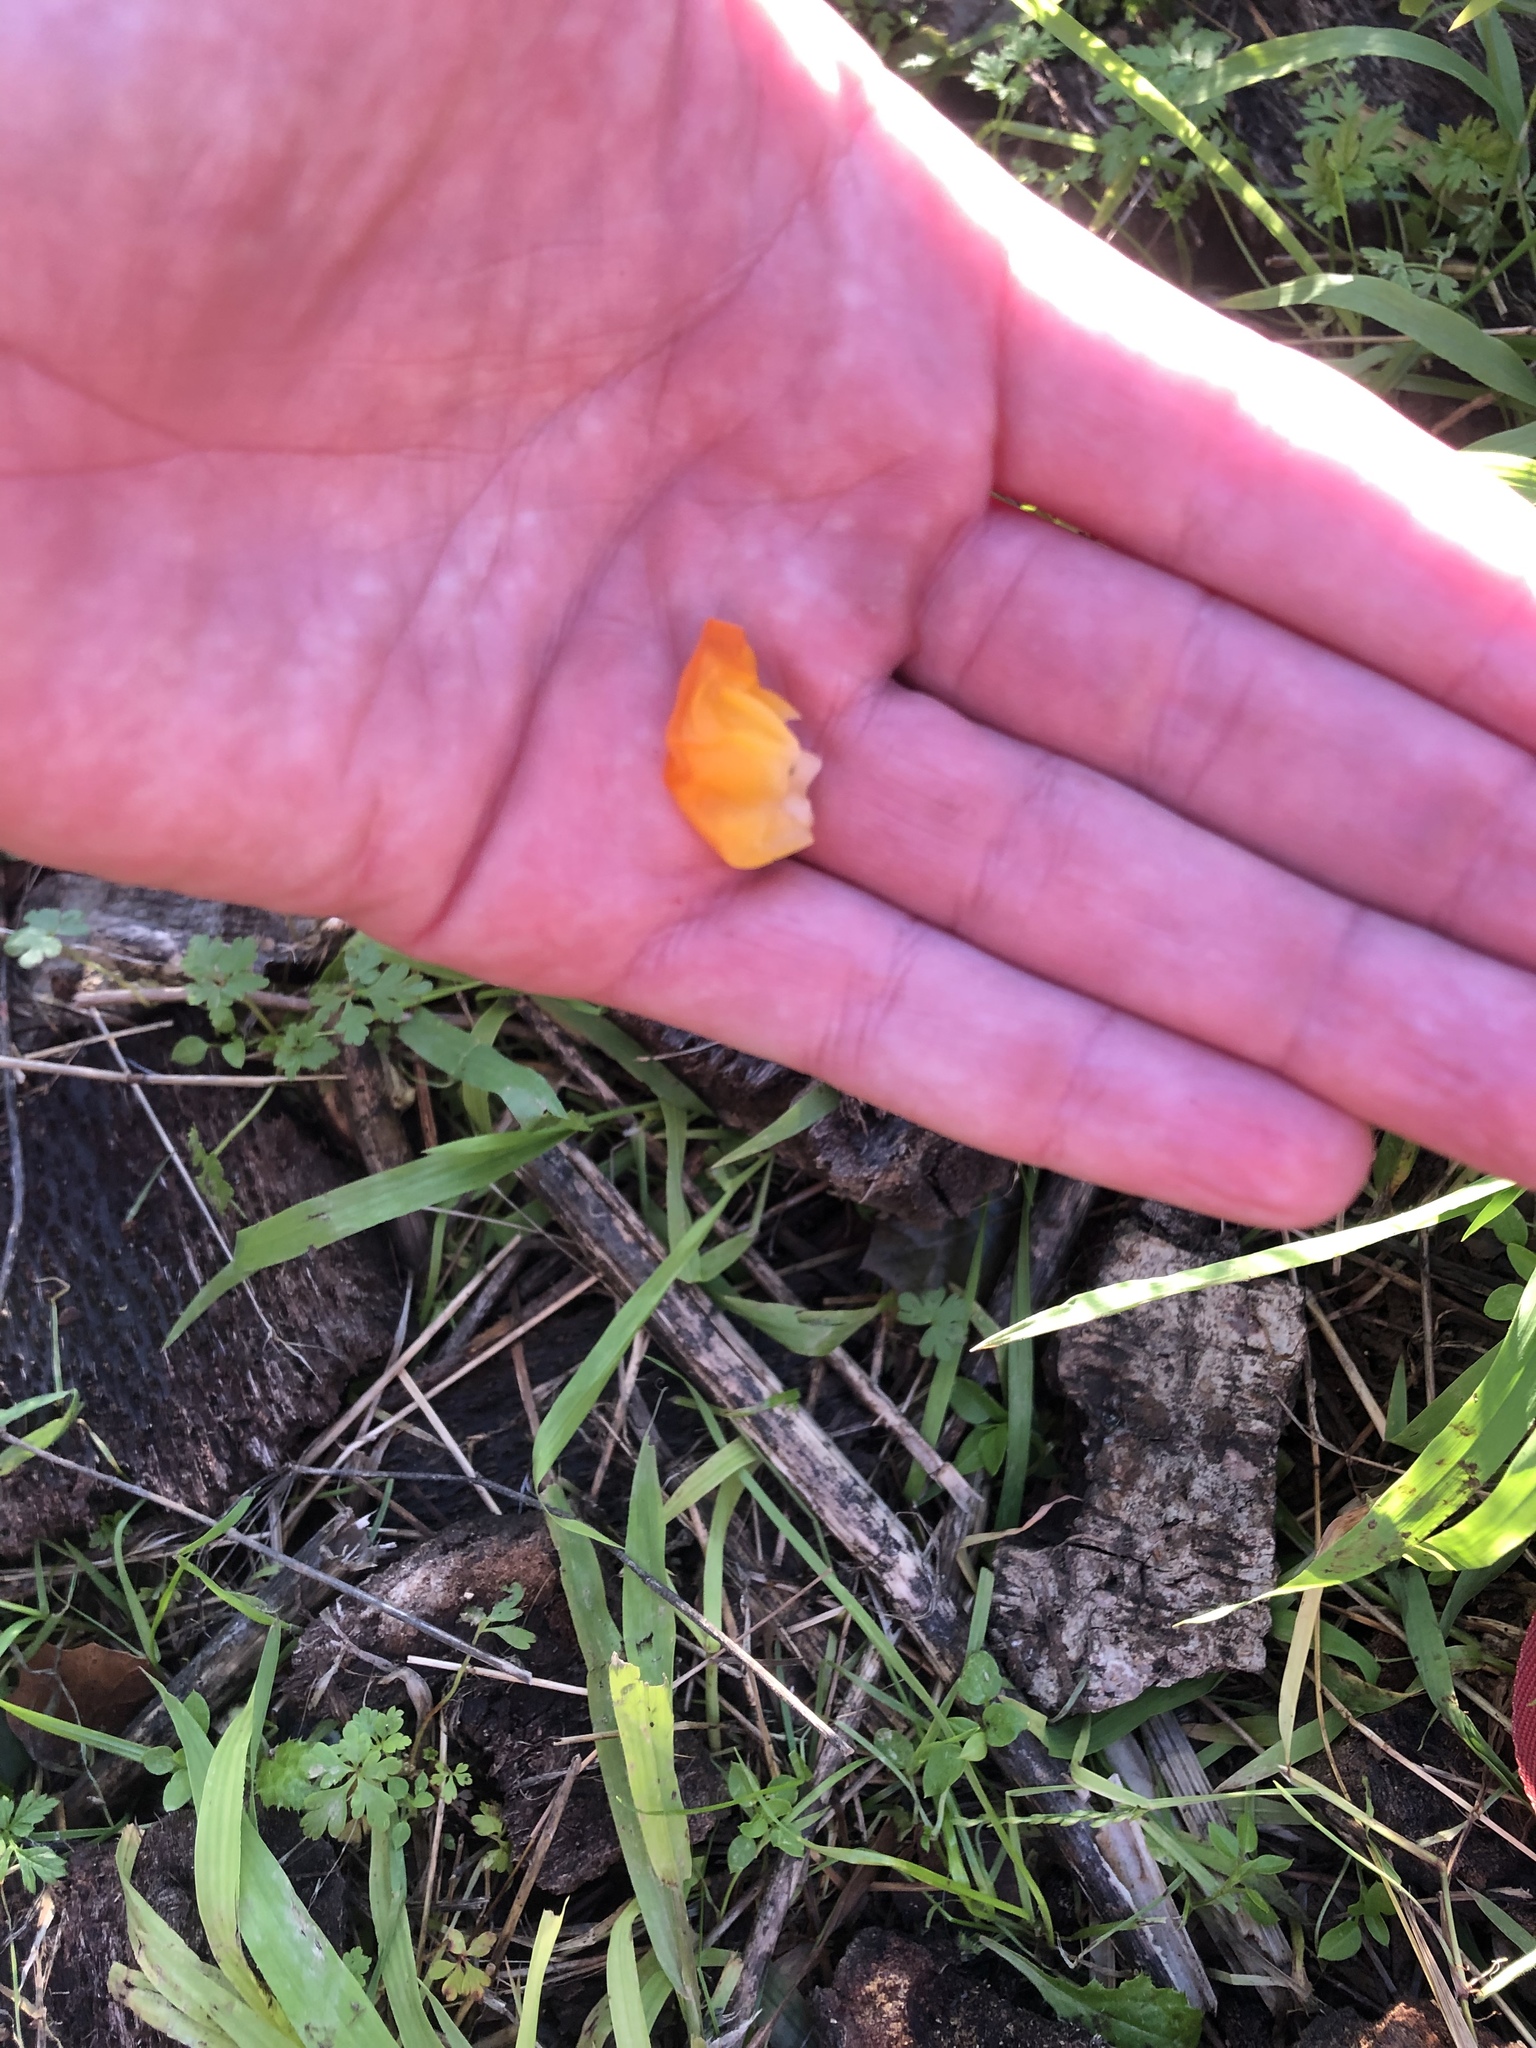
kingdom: Fungi
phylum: Basidiomycota
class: Tremellomycetes
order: Tremellales
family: Naemateliaceae
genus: Naematelia
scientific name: Naematelia aurantia
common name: Golden ear
